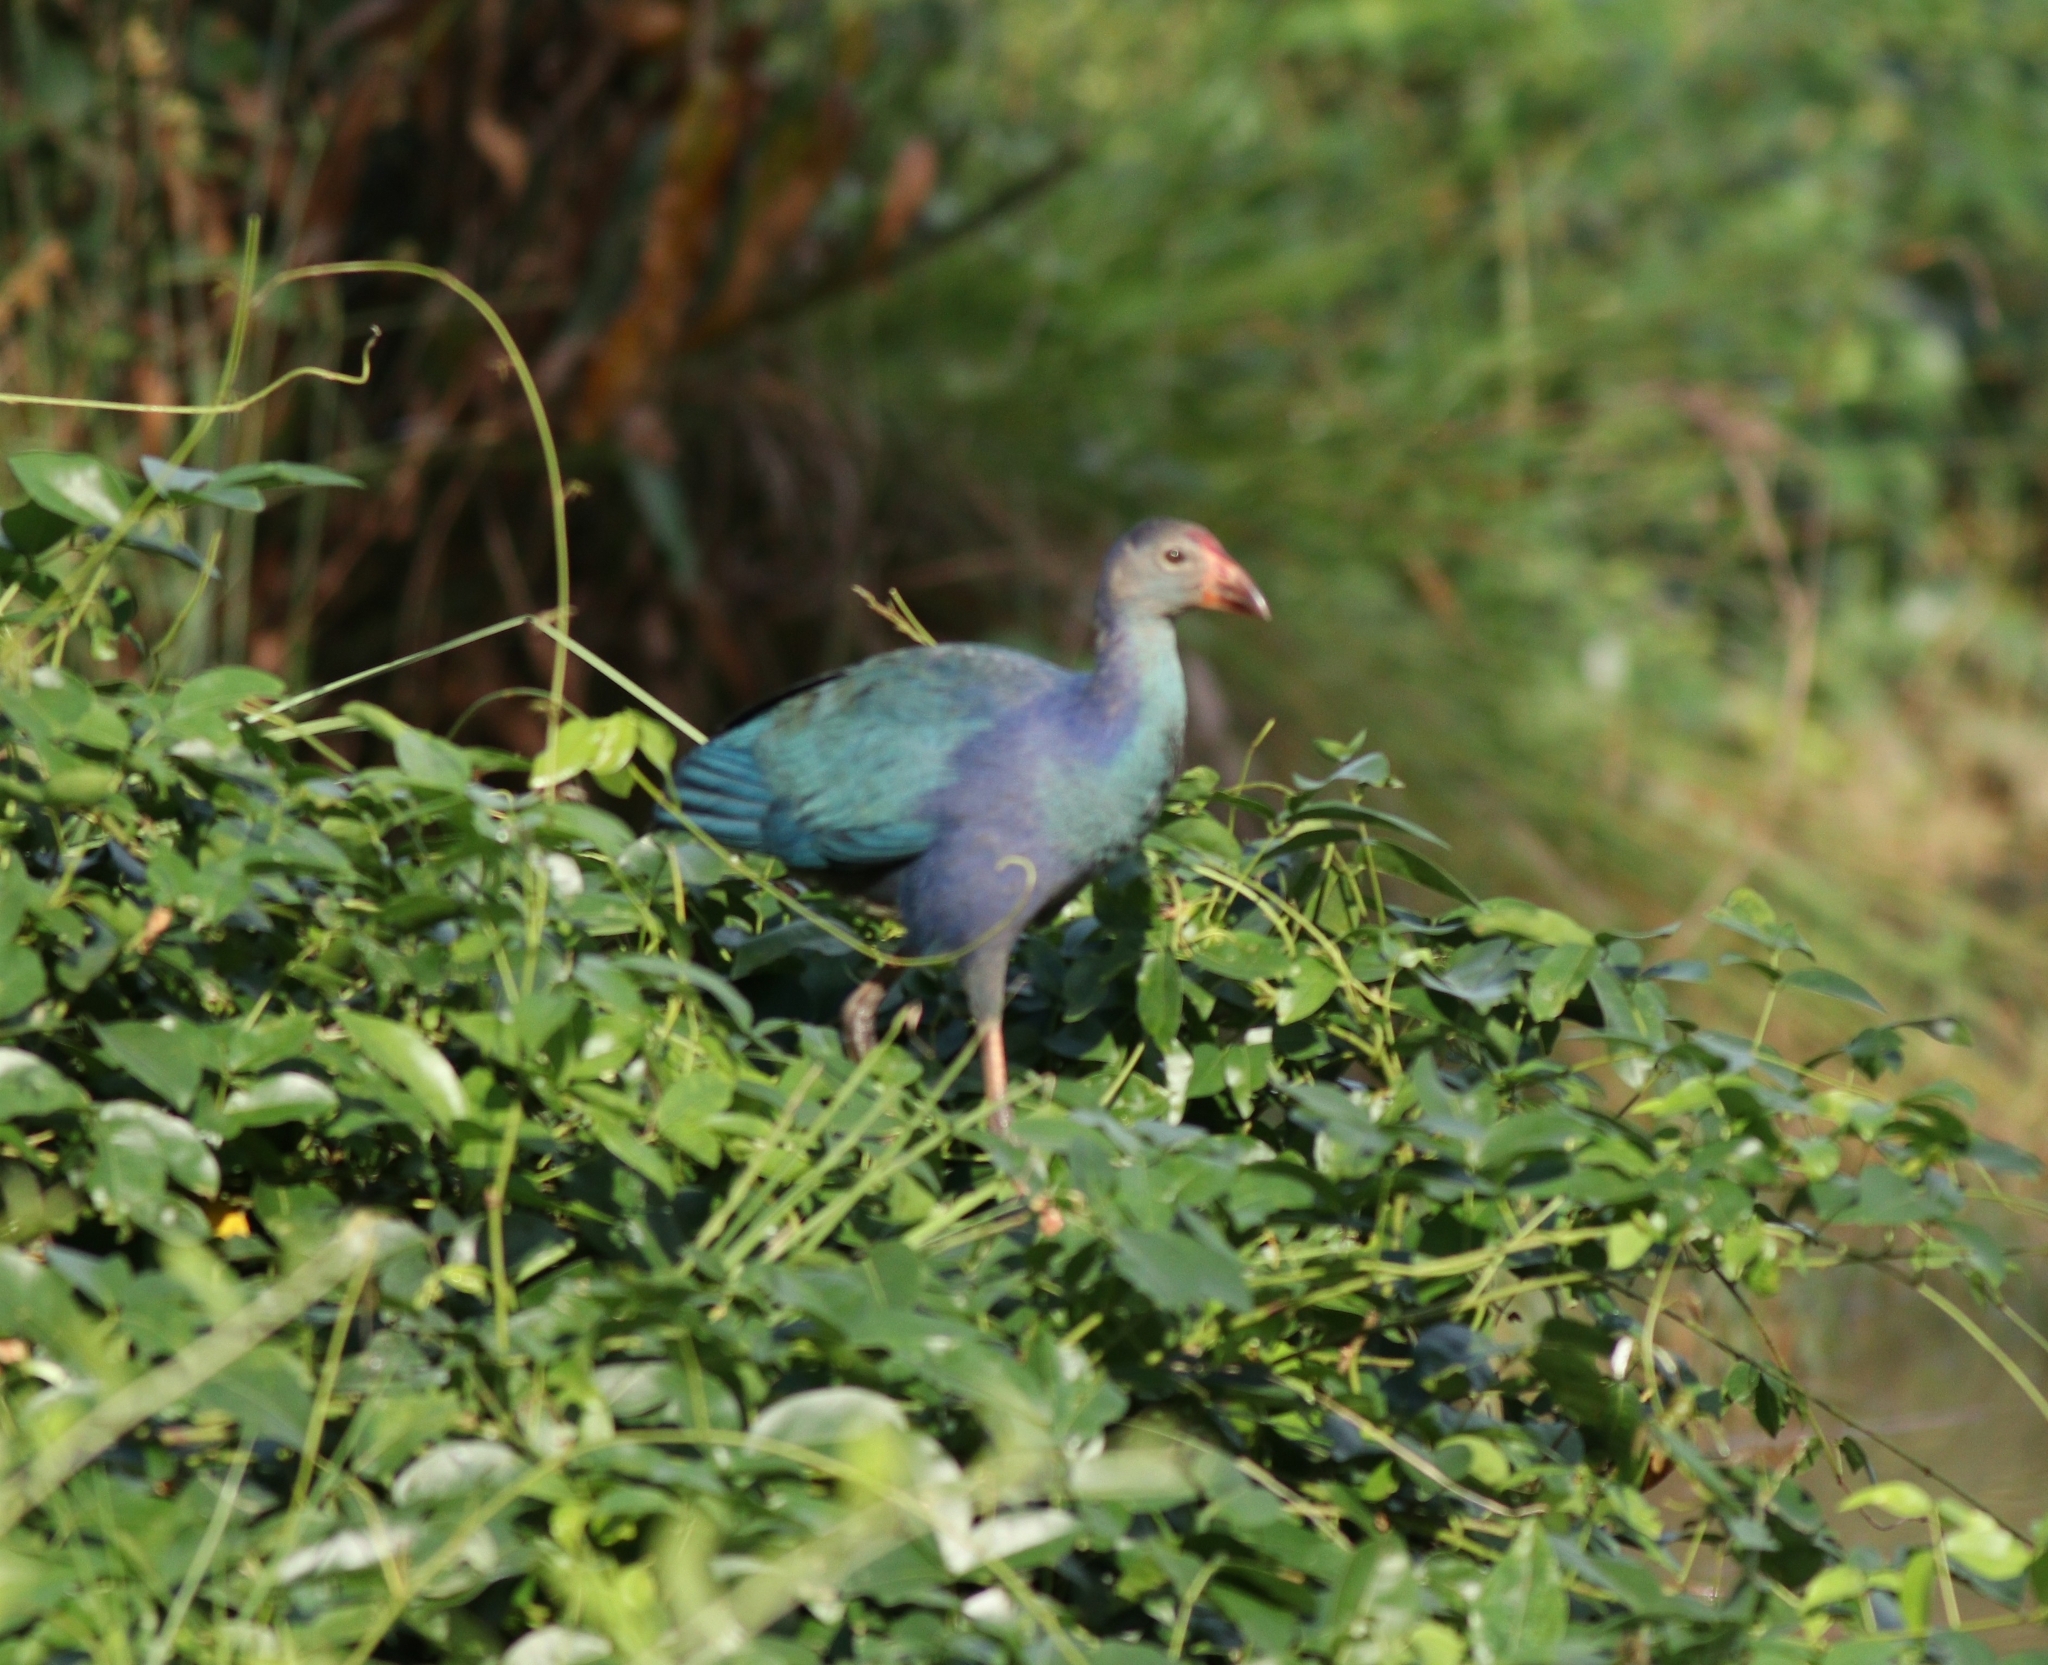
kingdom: Animalia
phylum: Chordata
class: Aves
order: Gruiformes
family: Rallidae
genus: Porphyrio
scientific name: Porphyrio porphyrio
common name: Purple swamphen
